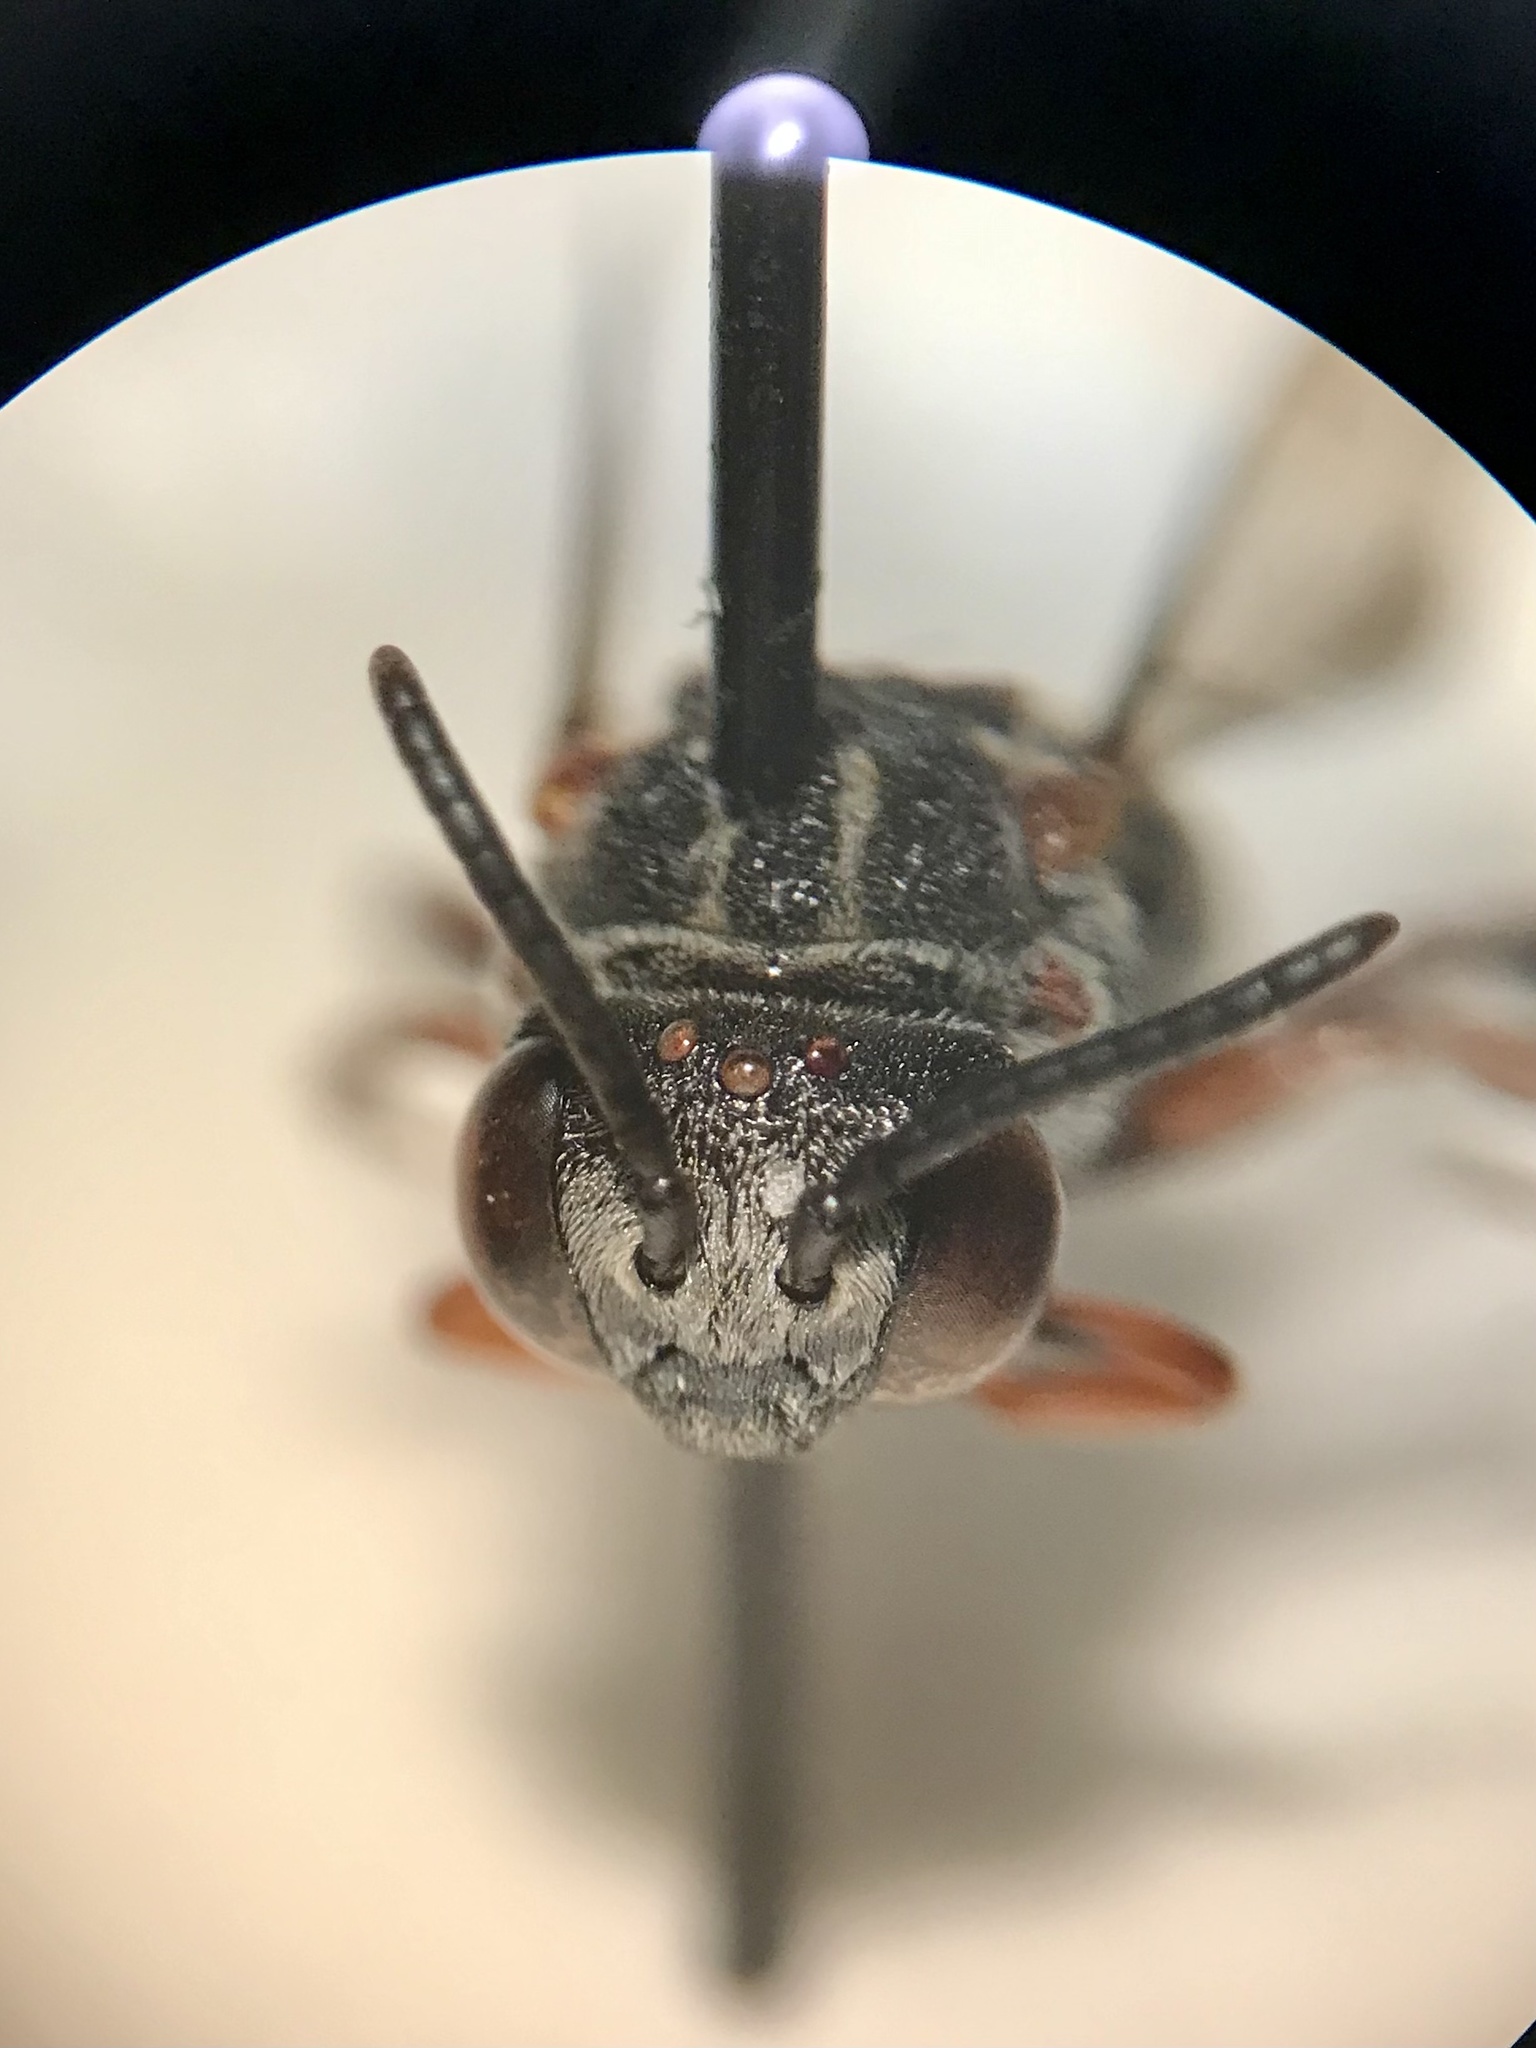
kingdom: Animalia
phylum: Arthropoda
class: Insecta
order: Hymenoptera
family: Apidae
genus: Epeolus
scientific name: Epeolus scutellaris
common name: Notch-backed cellophane-cuckoo bee
